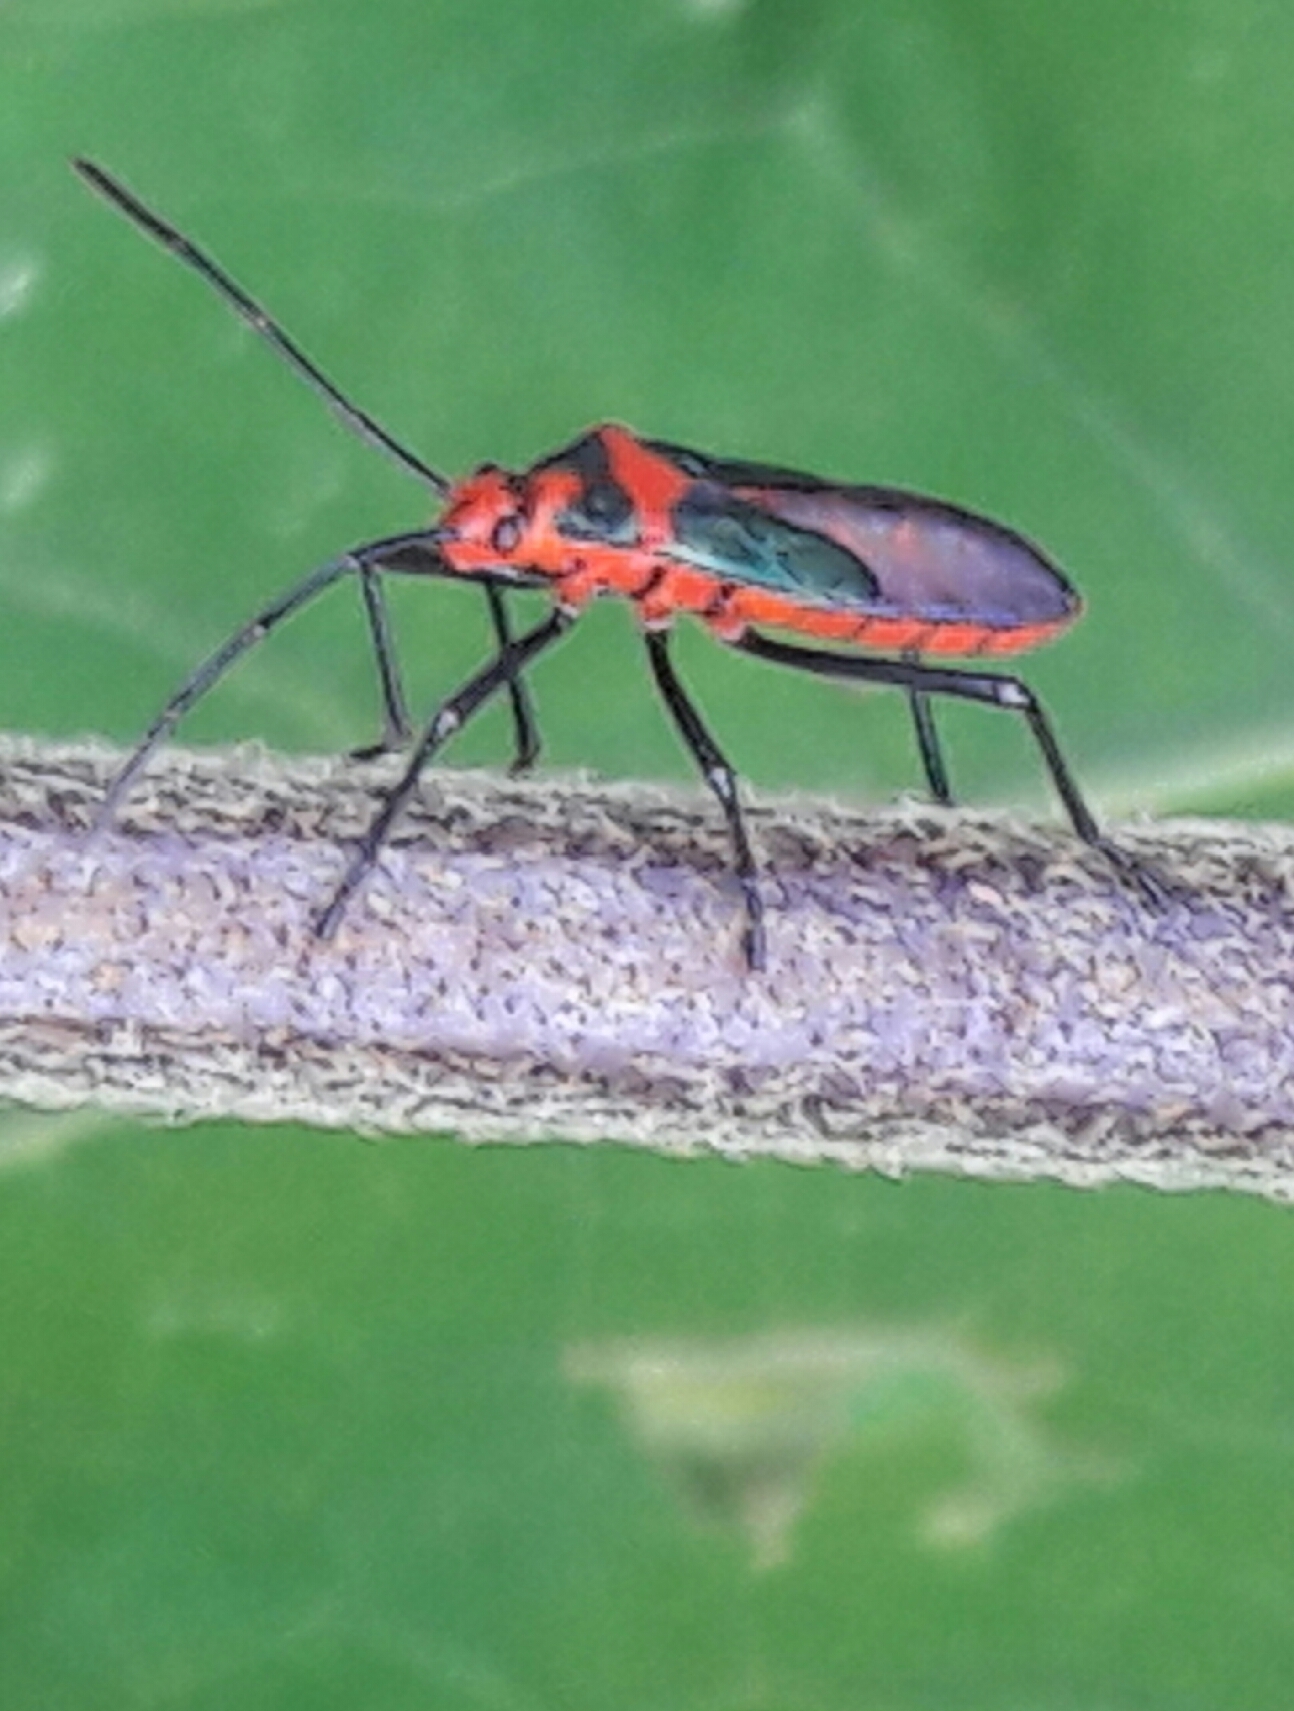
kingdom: Animalia
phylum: Arthropoda
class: Insecta
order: Hemiptera
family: Coreidae
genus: Sphictyrtus
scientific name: Sphictyrtus chrysis
